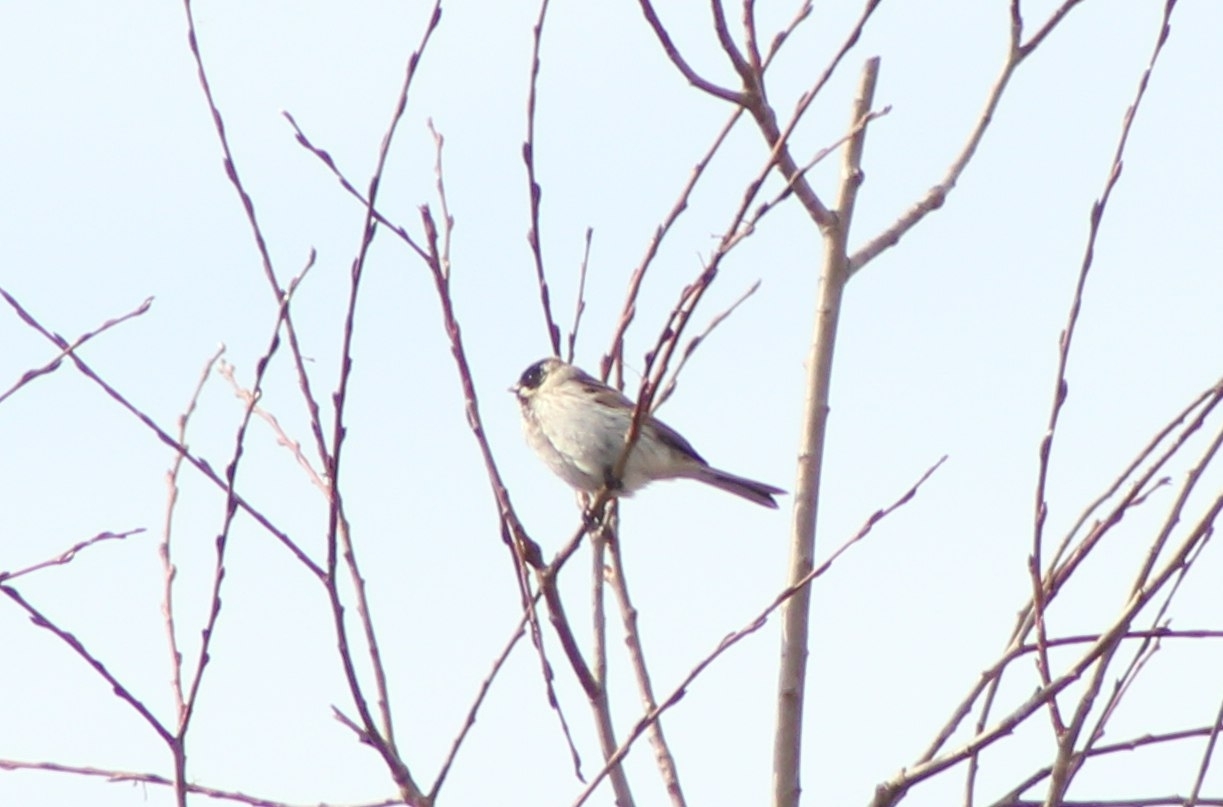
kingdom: Animalia
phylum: Chordata
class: Aves
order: Passeriformes
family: Emberizidae
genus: Emberiza
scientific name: Emberiza schoeniclus
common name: Reed bunting
